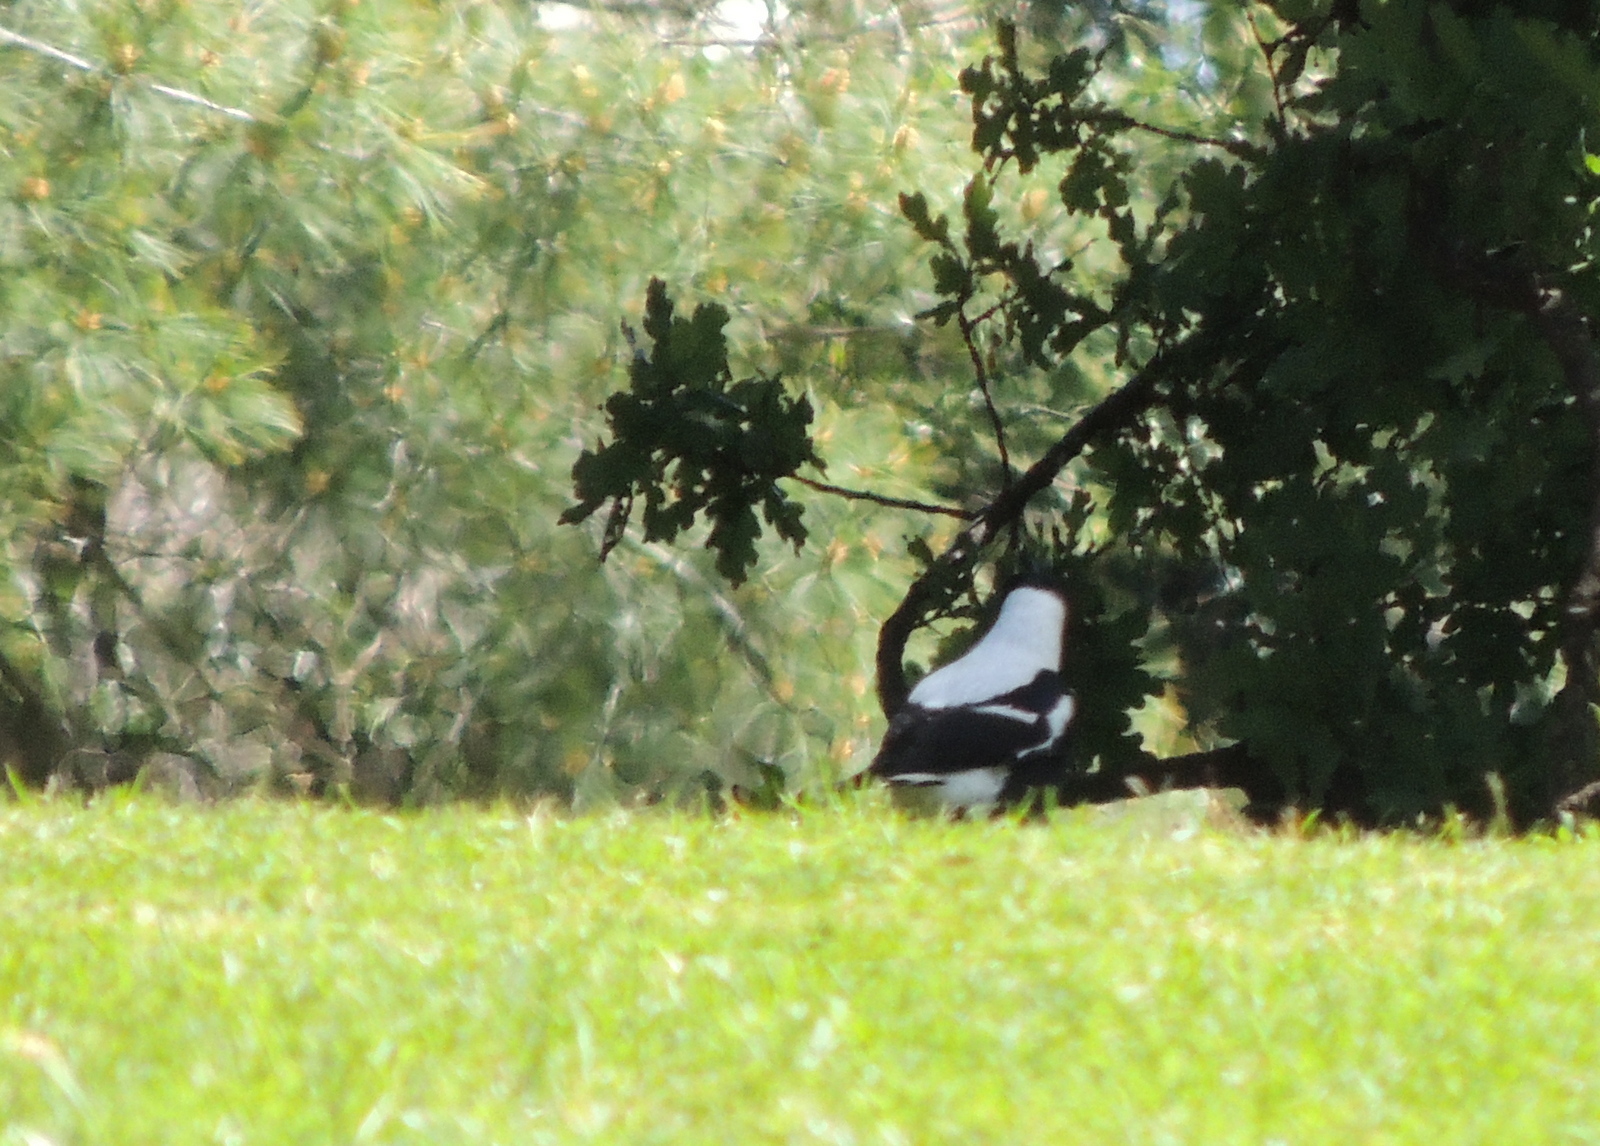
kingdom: Animalia
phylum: Chordata
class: Aves
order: Passeriformes
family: Cracticidae
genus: Gymnorhina
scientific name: Gymnorhina tibicen
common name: Australian magpie
